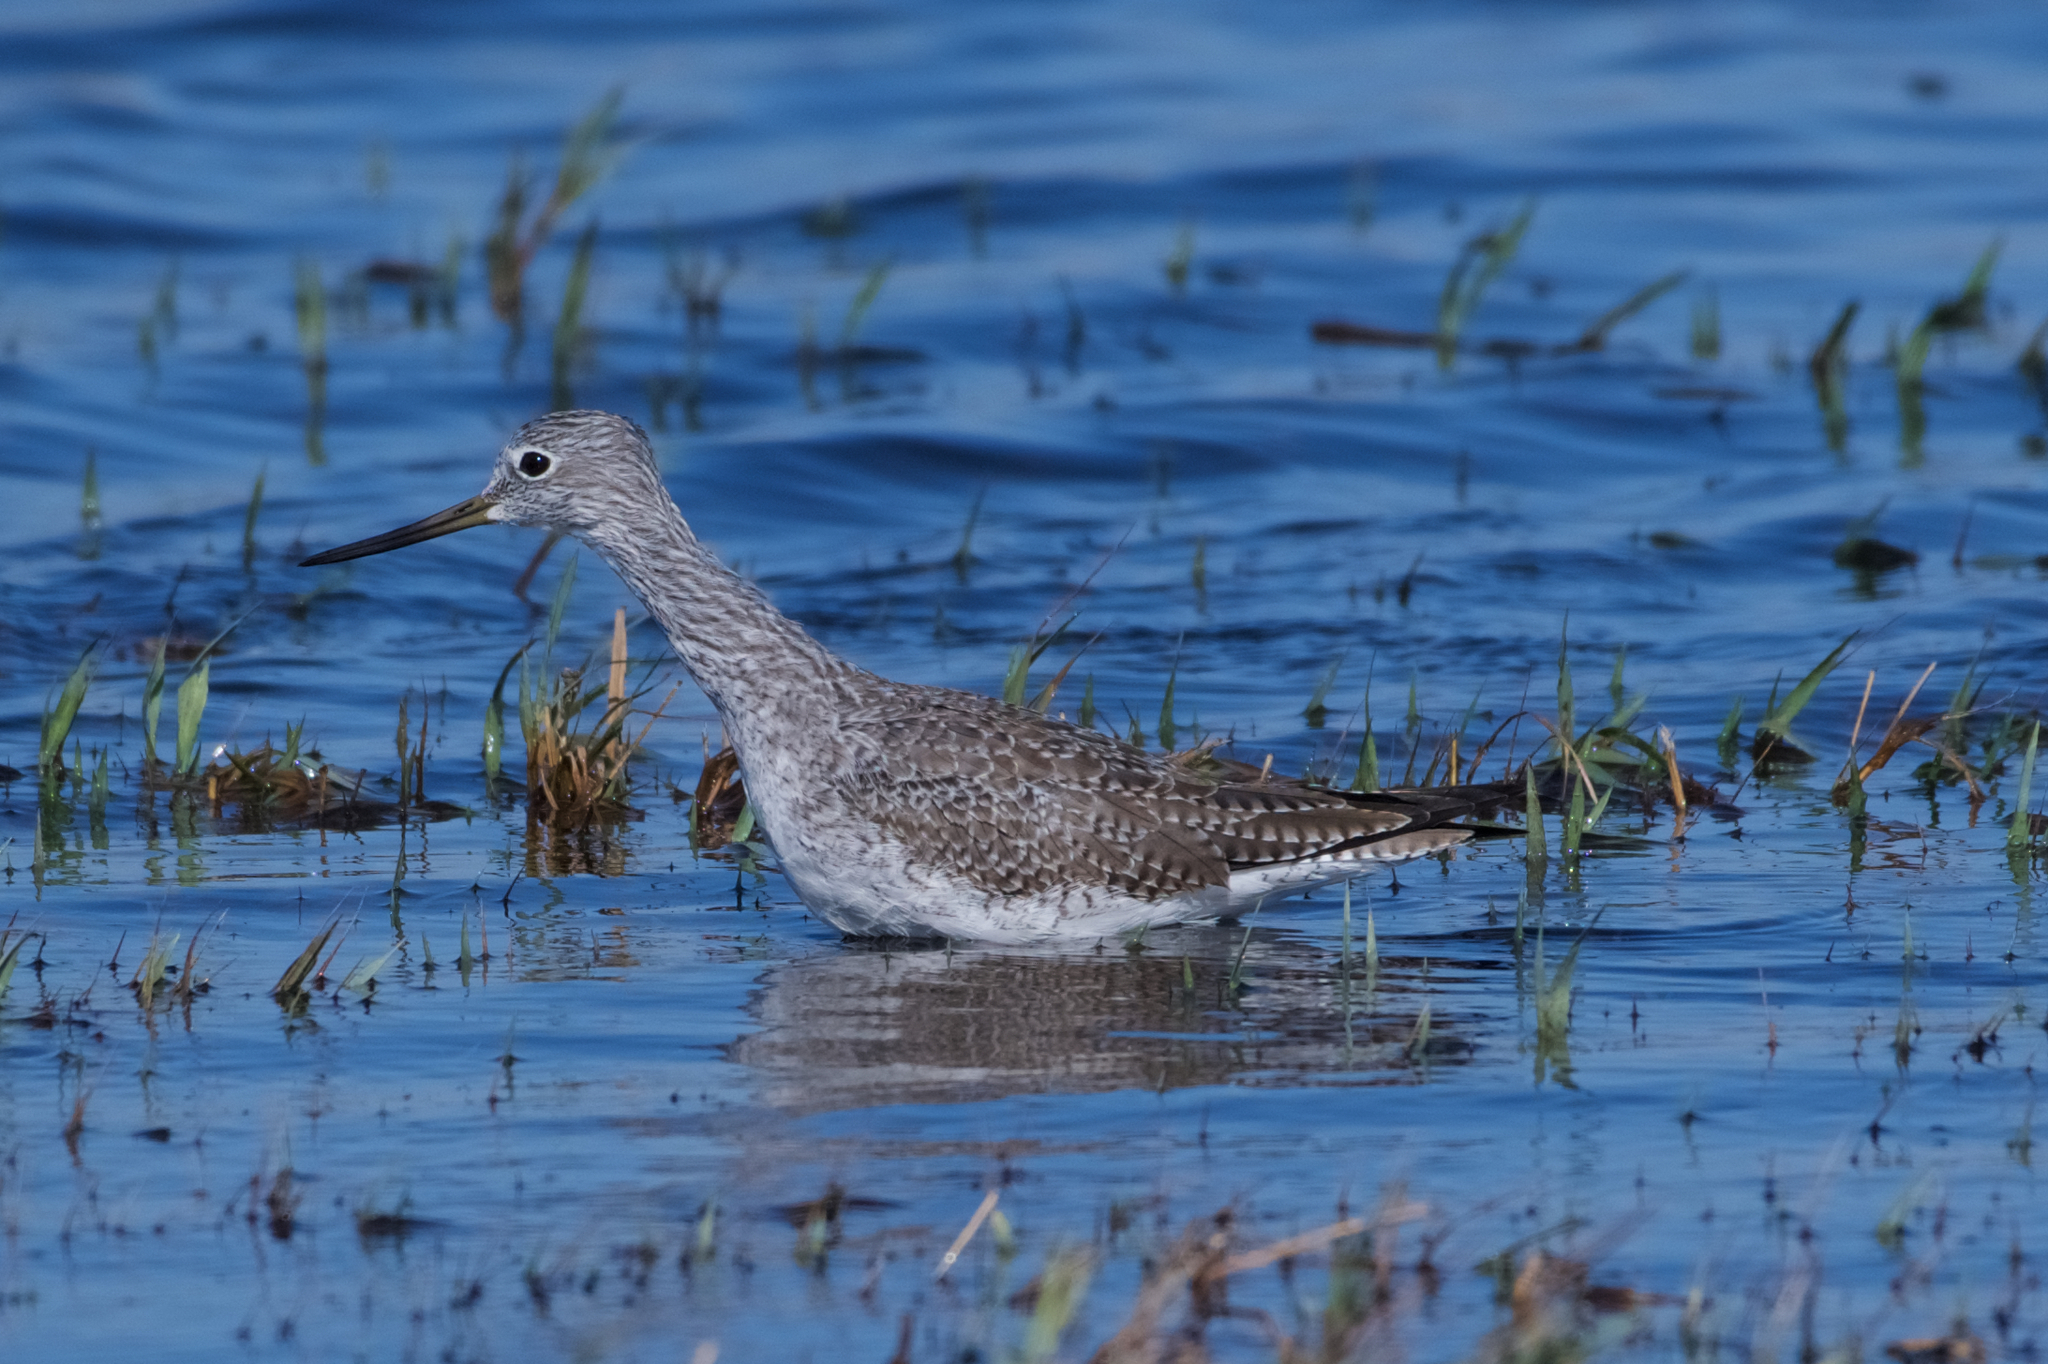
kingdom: Animalia
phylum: Chordata
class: Aves
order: Charadriiformes
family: Scolopacidae
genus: Tringa
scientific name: Tringa melanoleuca
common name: Greater yellowlegs
